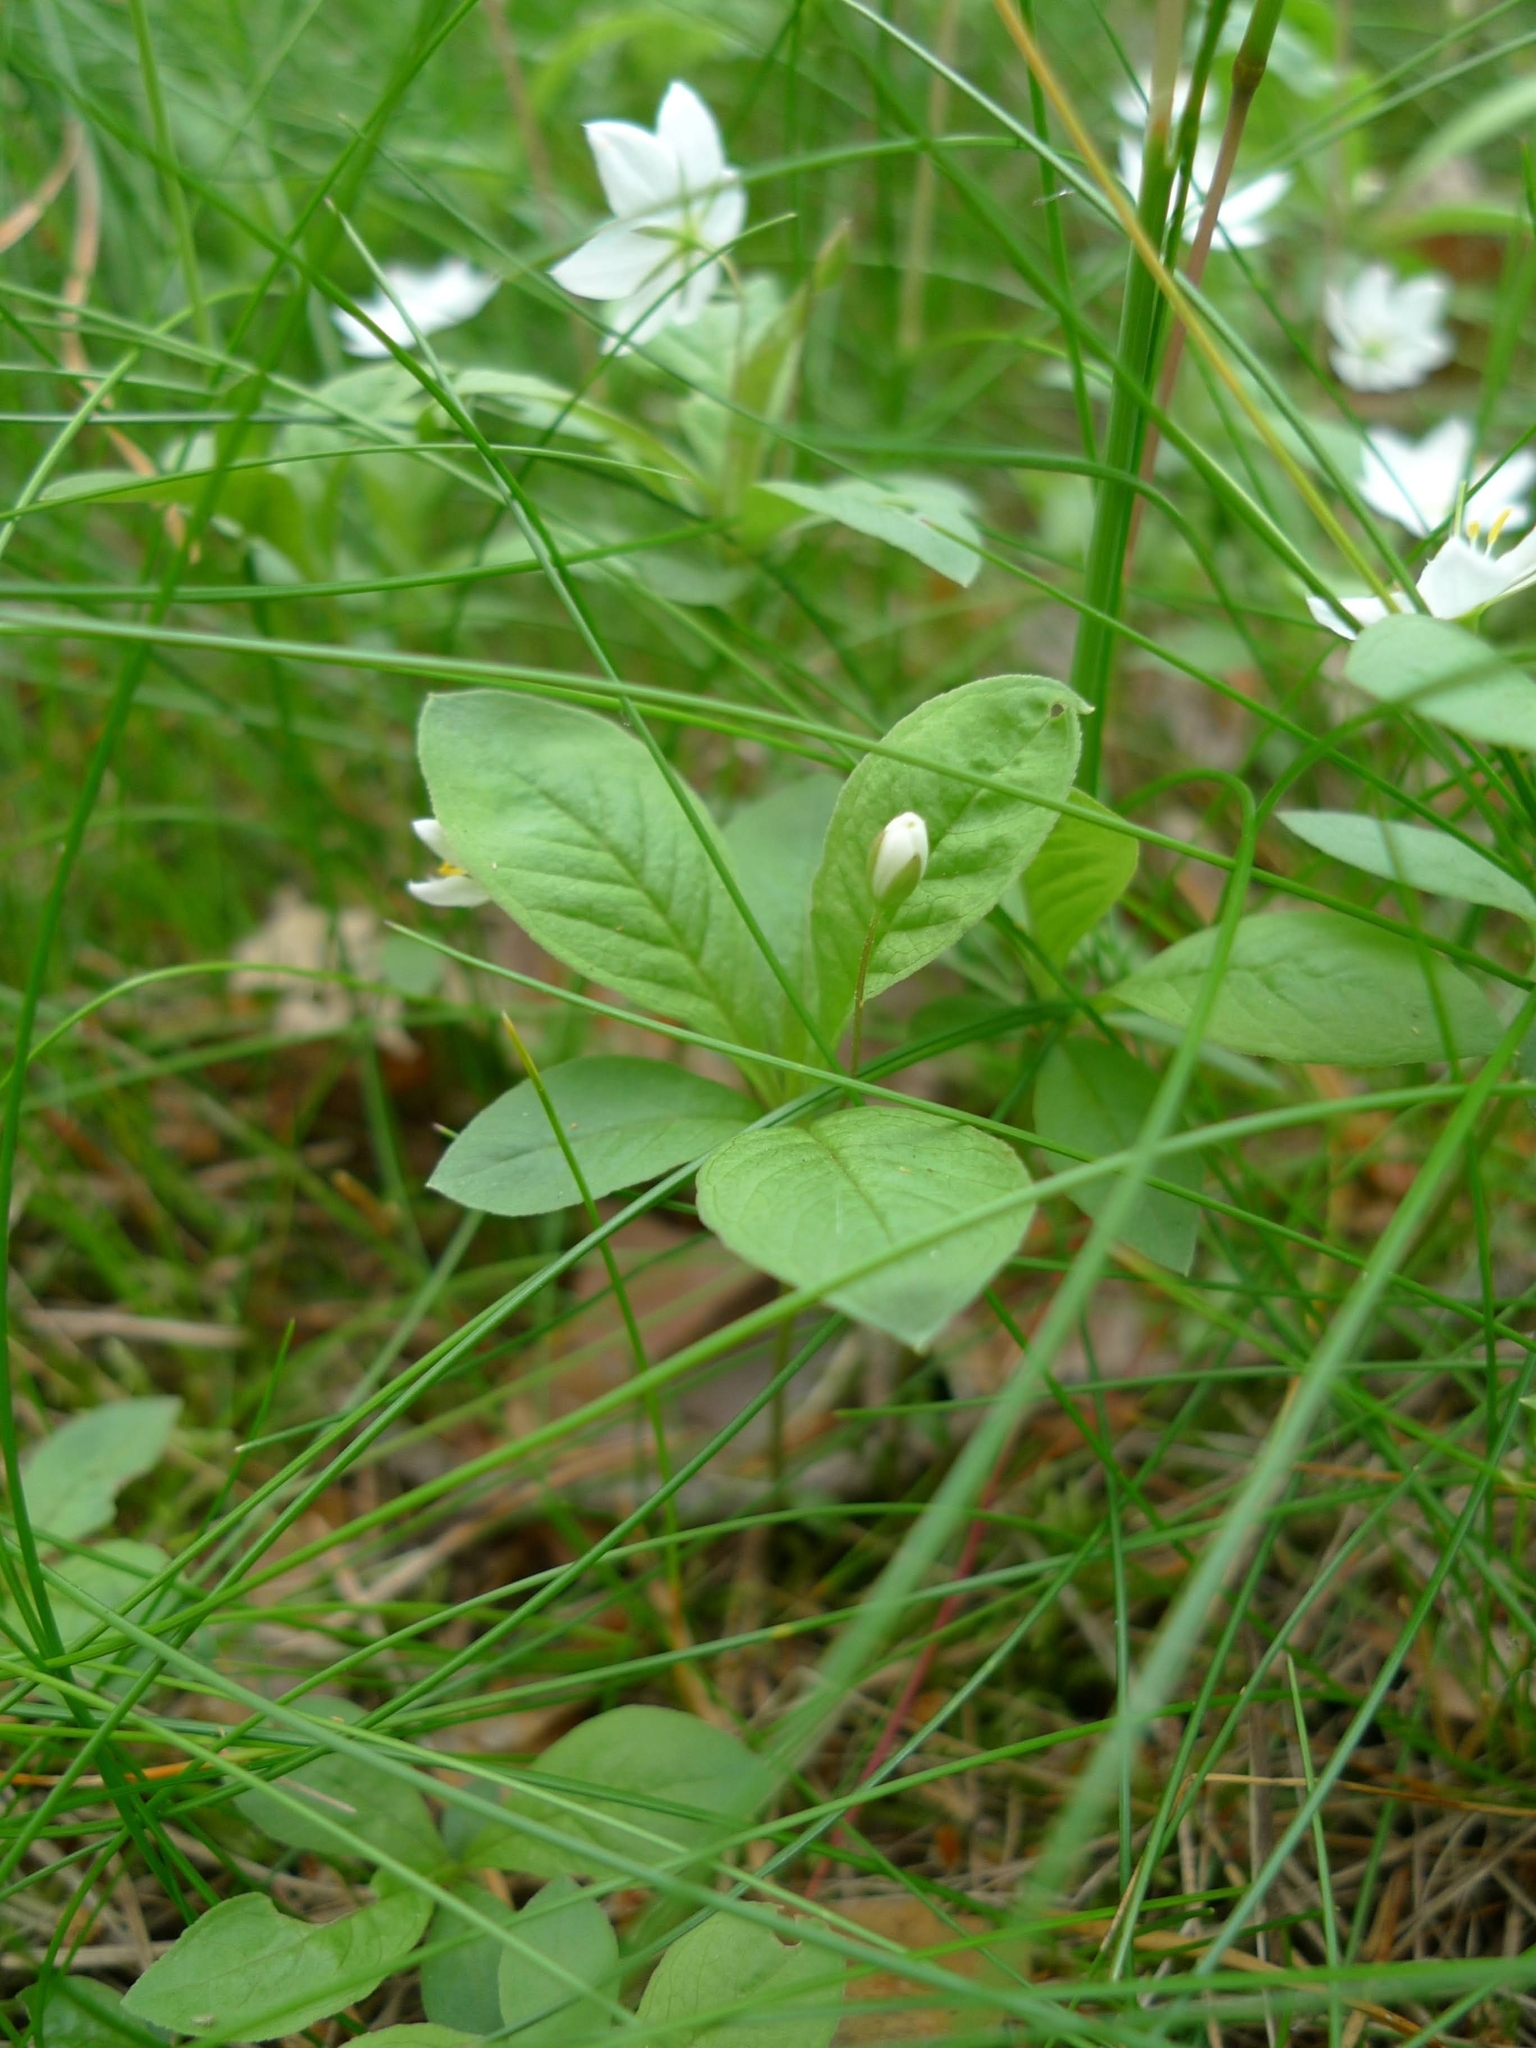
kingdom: Plantae
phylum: Tracheophyta
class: Magnoliopsida
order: Ericales
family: Primulaceae
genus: Lysimachia
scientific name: Lysimachia europaea
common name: Arctic starflower
